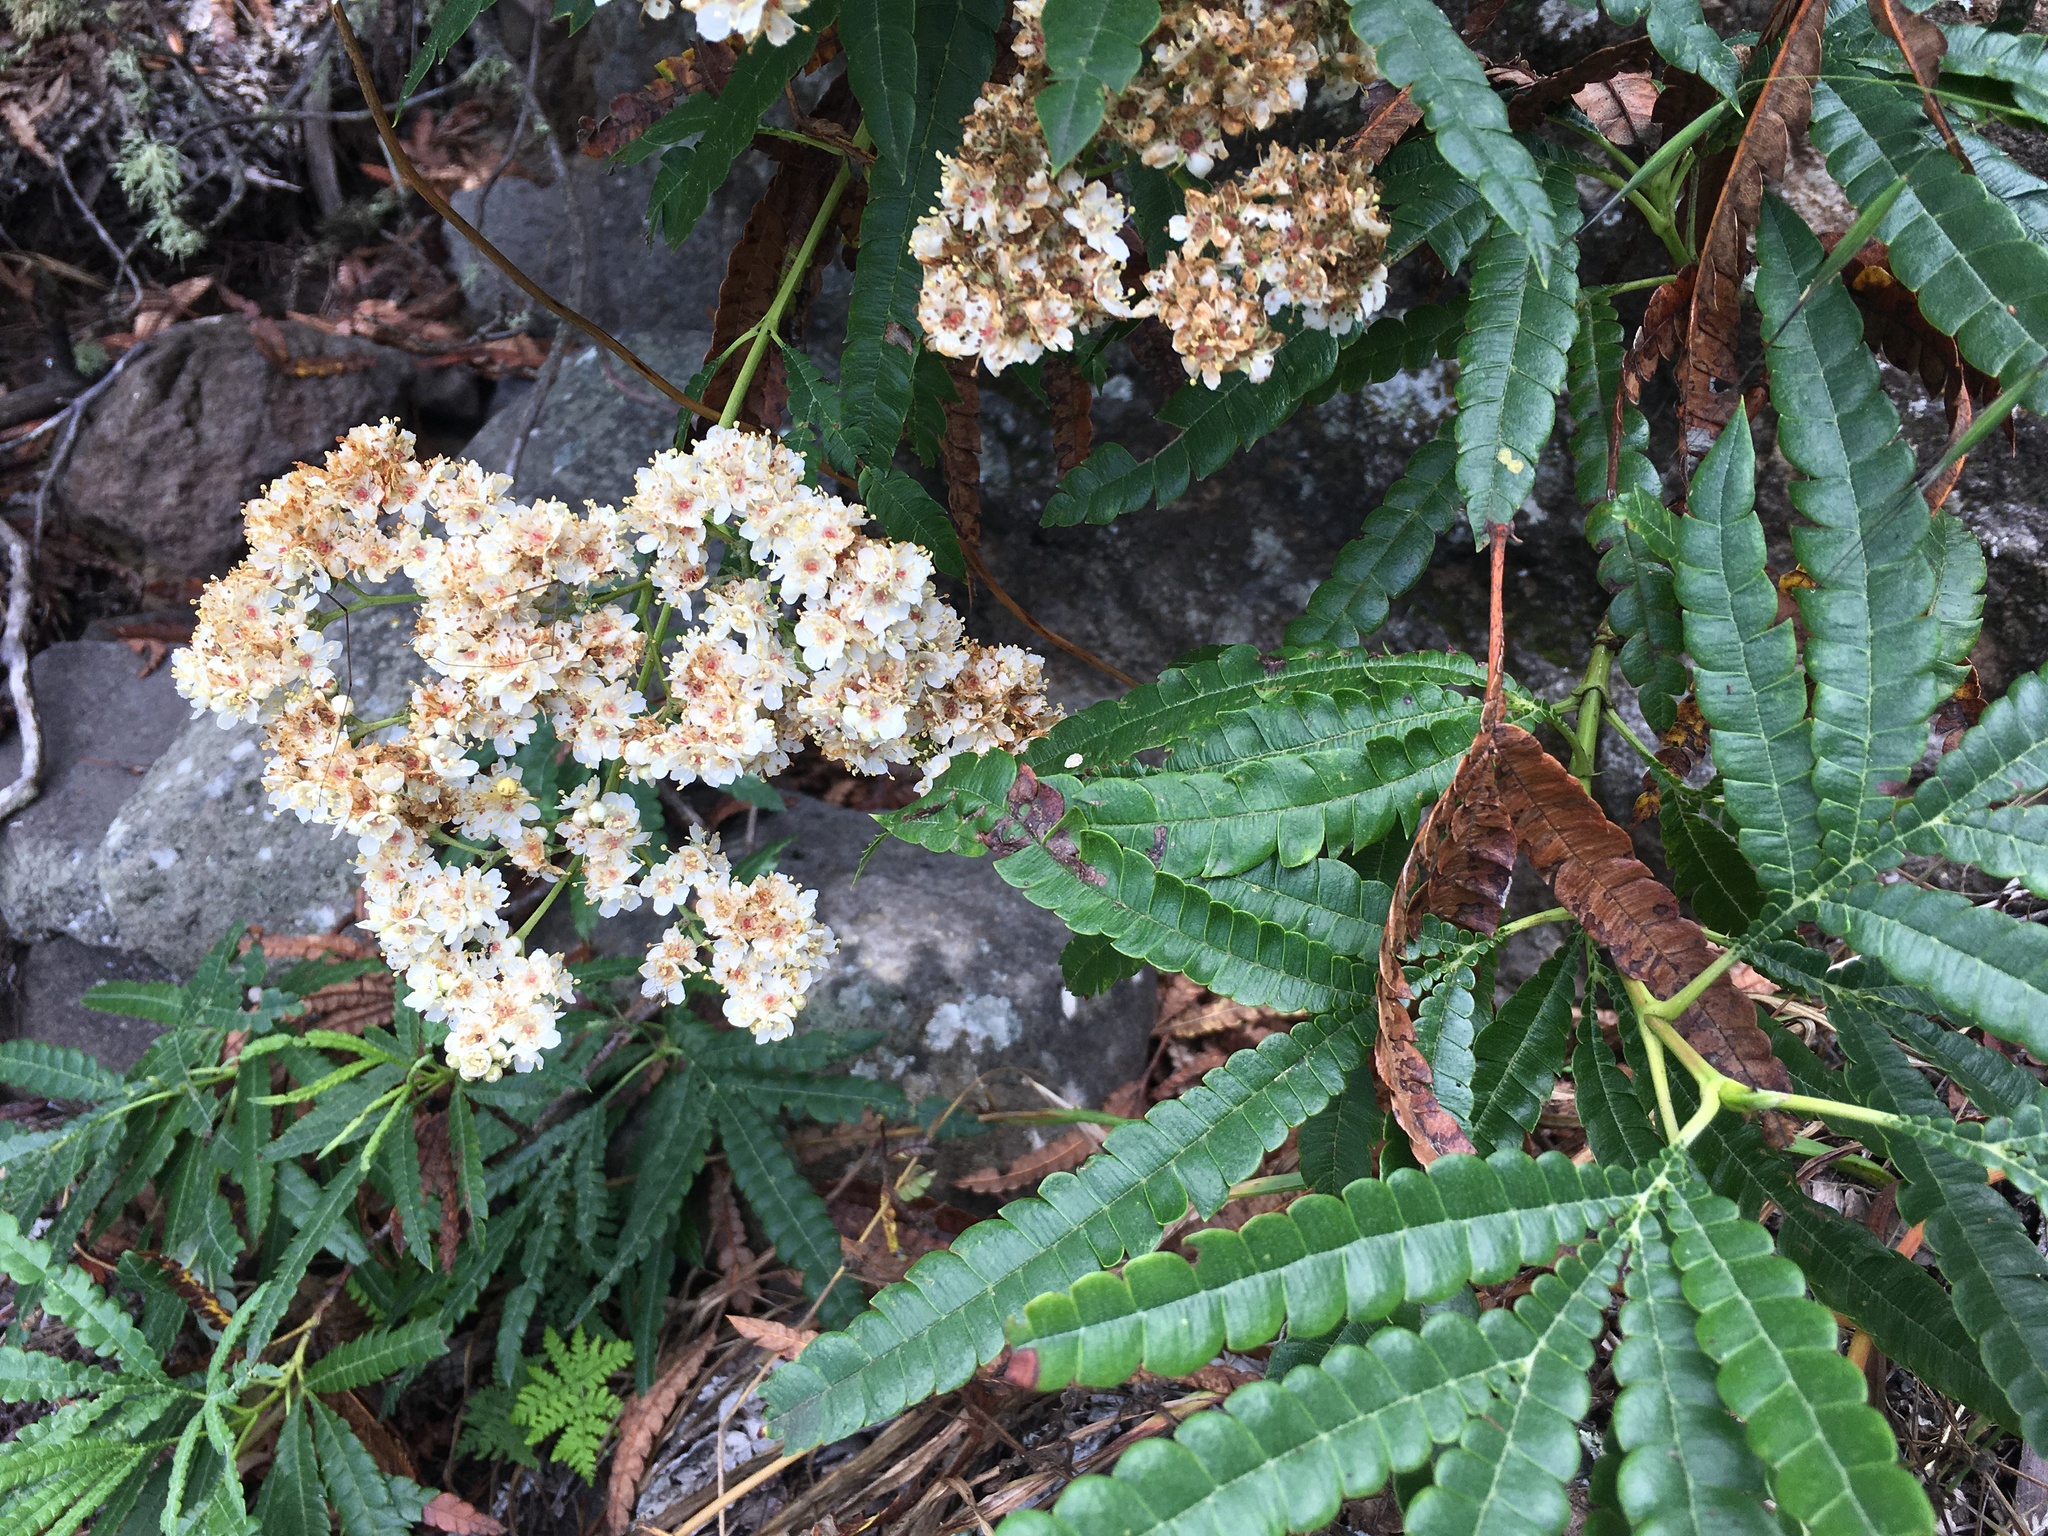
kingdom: Plantae
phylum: Tracheophyta
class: Magnoliopsida
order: Rosales
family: Rosaceae
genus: Lyonothamnus
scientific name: Lyonothamnus floribundus
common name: Catalina ironwood
